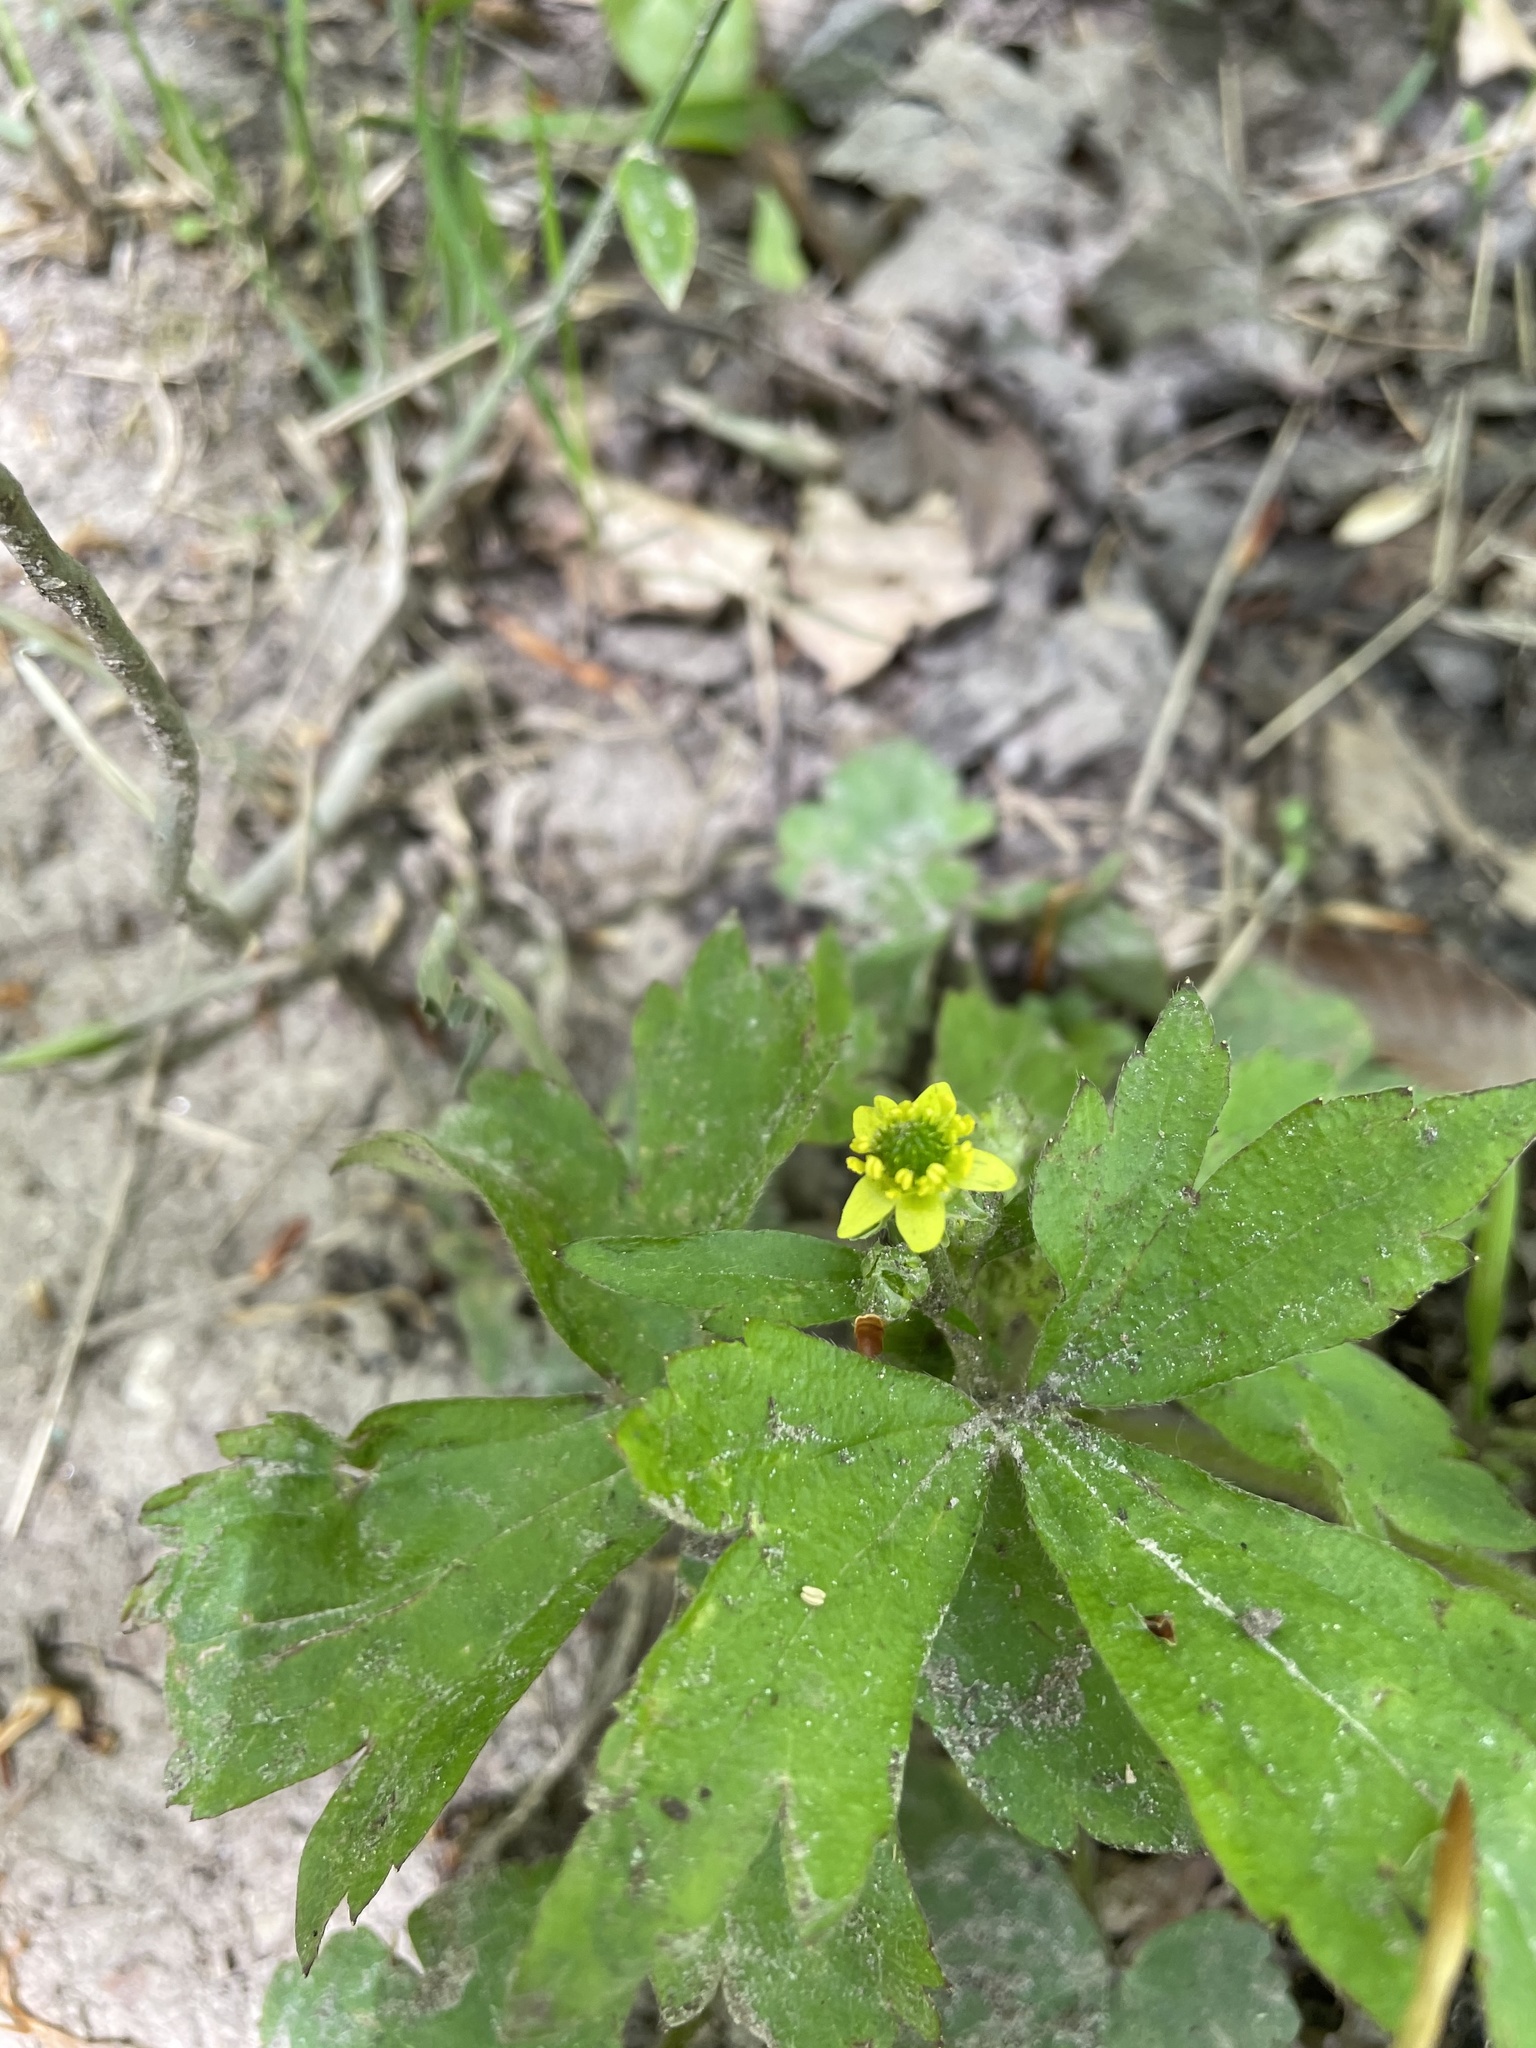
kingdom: Plantae
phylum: Tracheophyta
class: Magnoliopsida
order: Ranunculales
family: Ranunculaceae
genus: Ranunculus
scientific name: Ranunculus recurvatus
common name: Blisterwort
